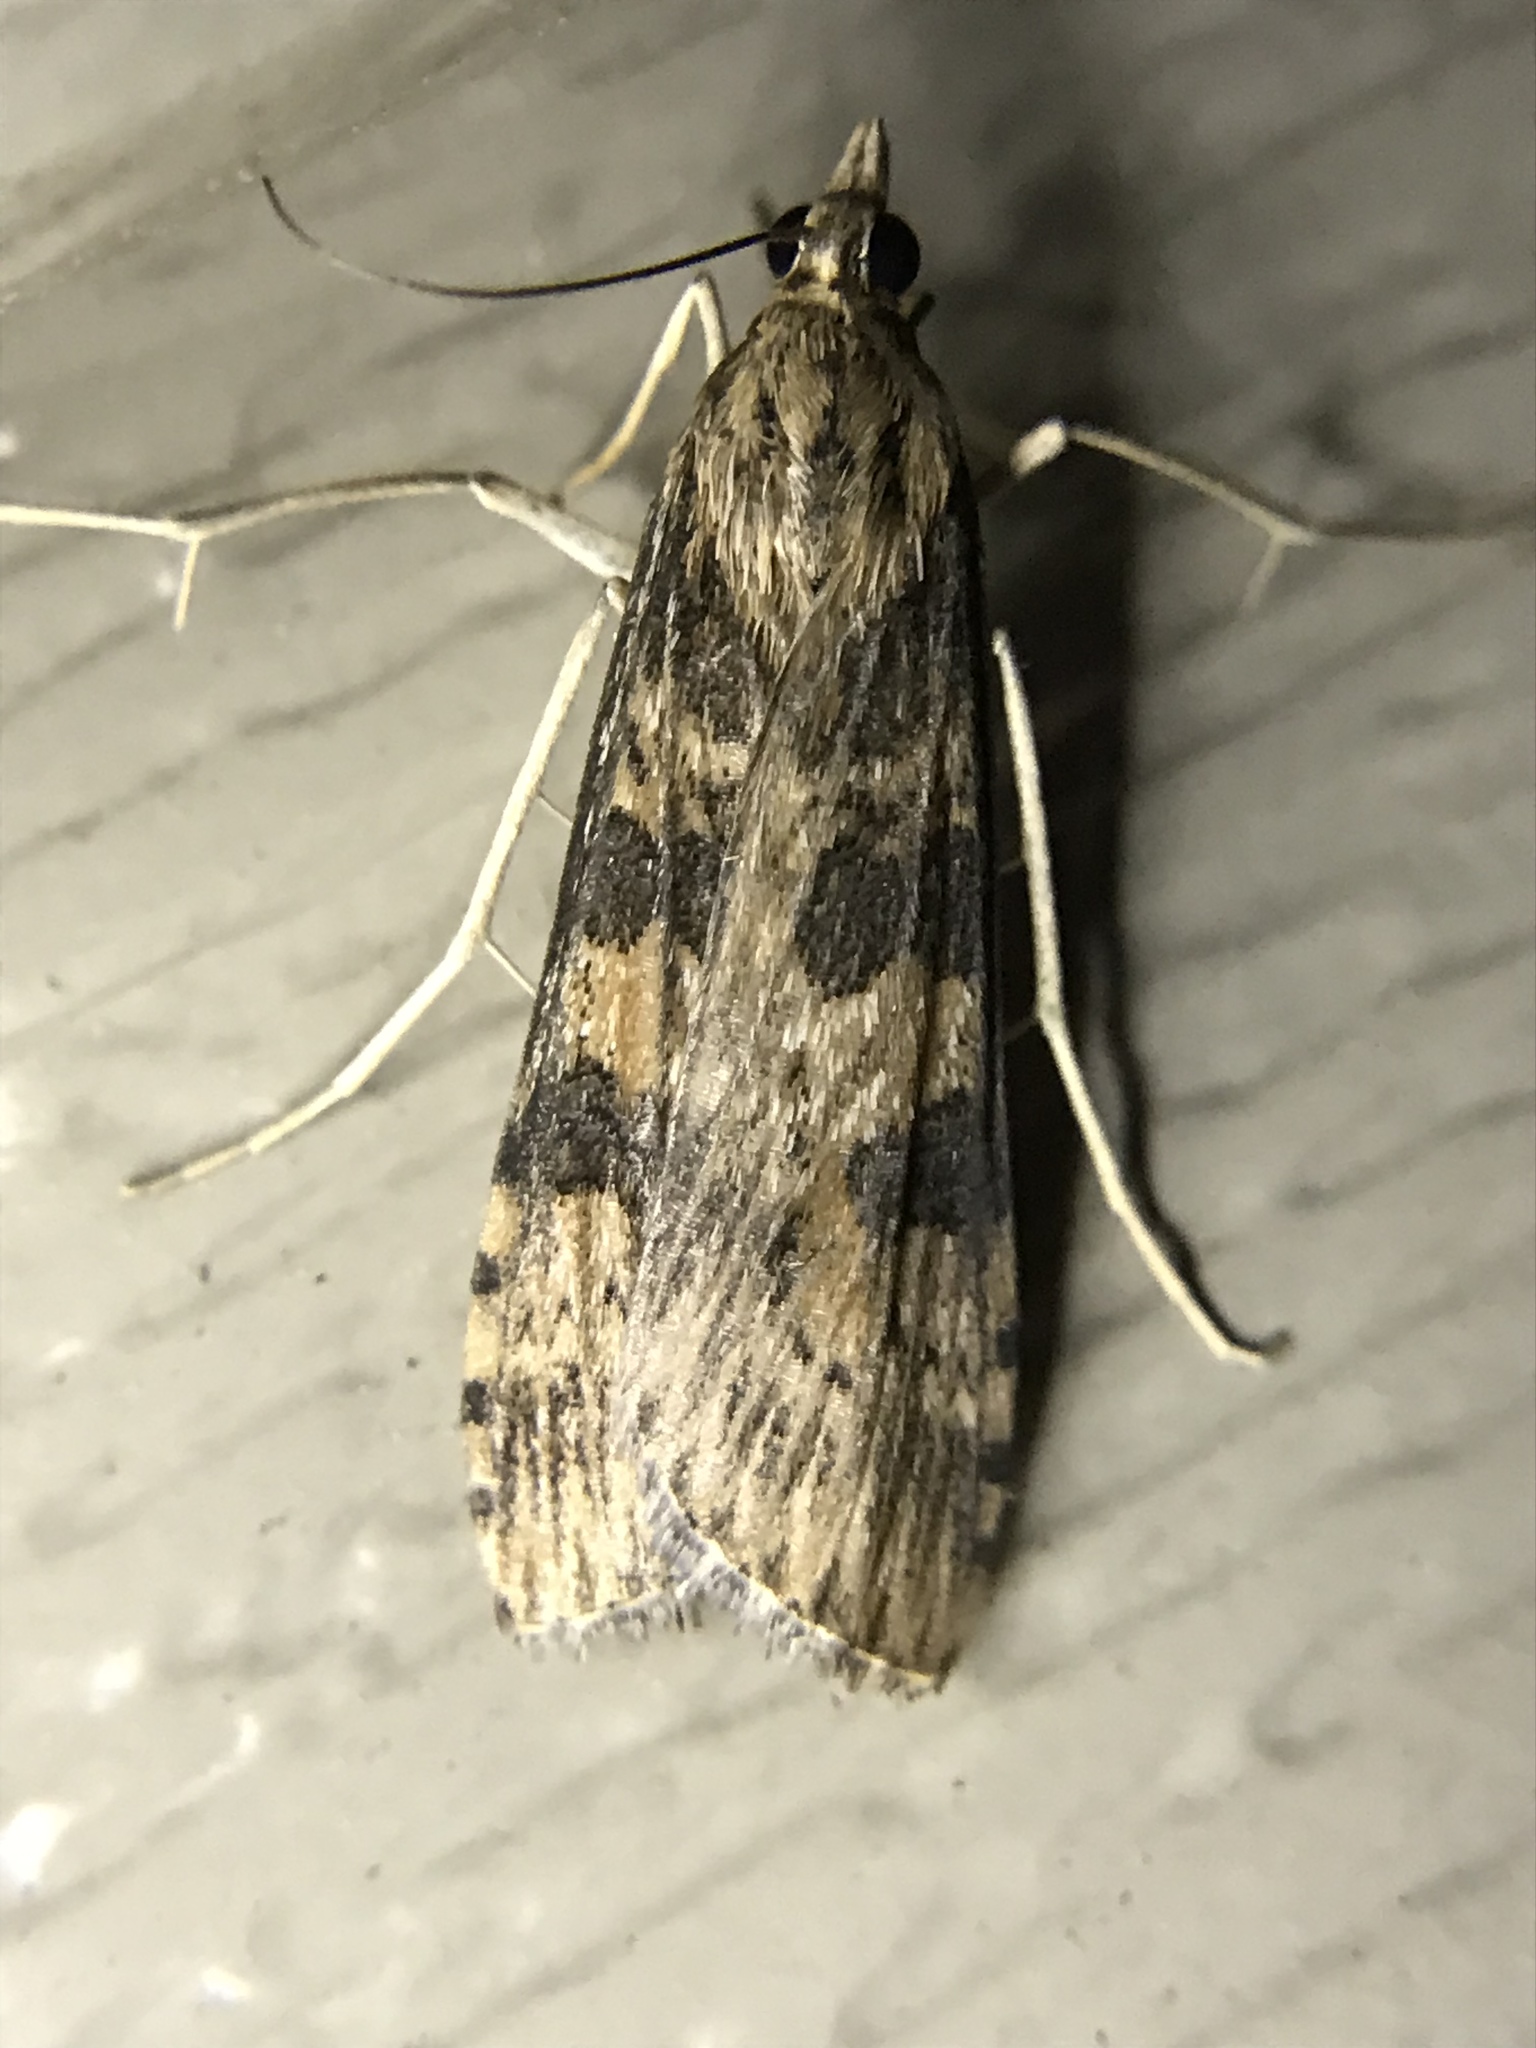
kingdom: Animalia
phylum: Arthropoda
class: Insecta
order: Lepidoptera
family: Crambidae
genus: Nomophila
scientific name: Nomophila nearctica
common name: American rush veneer
